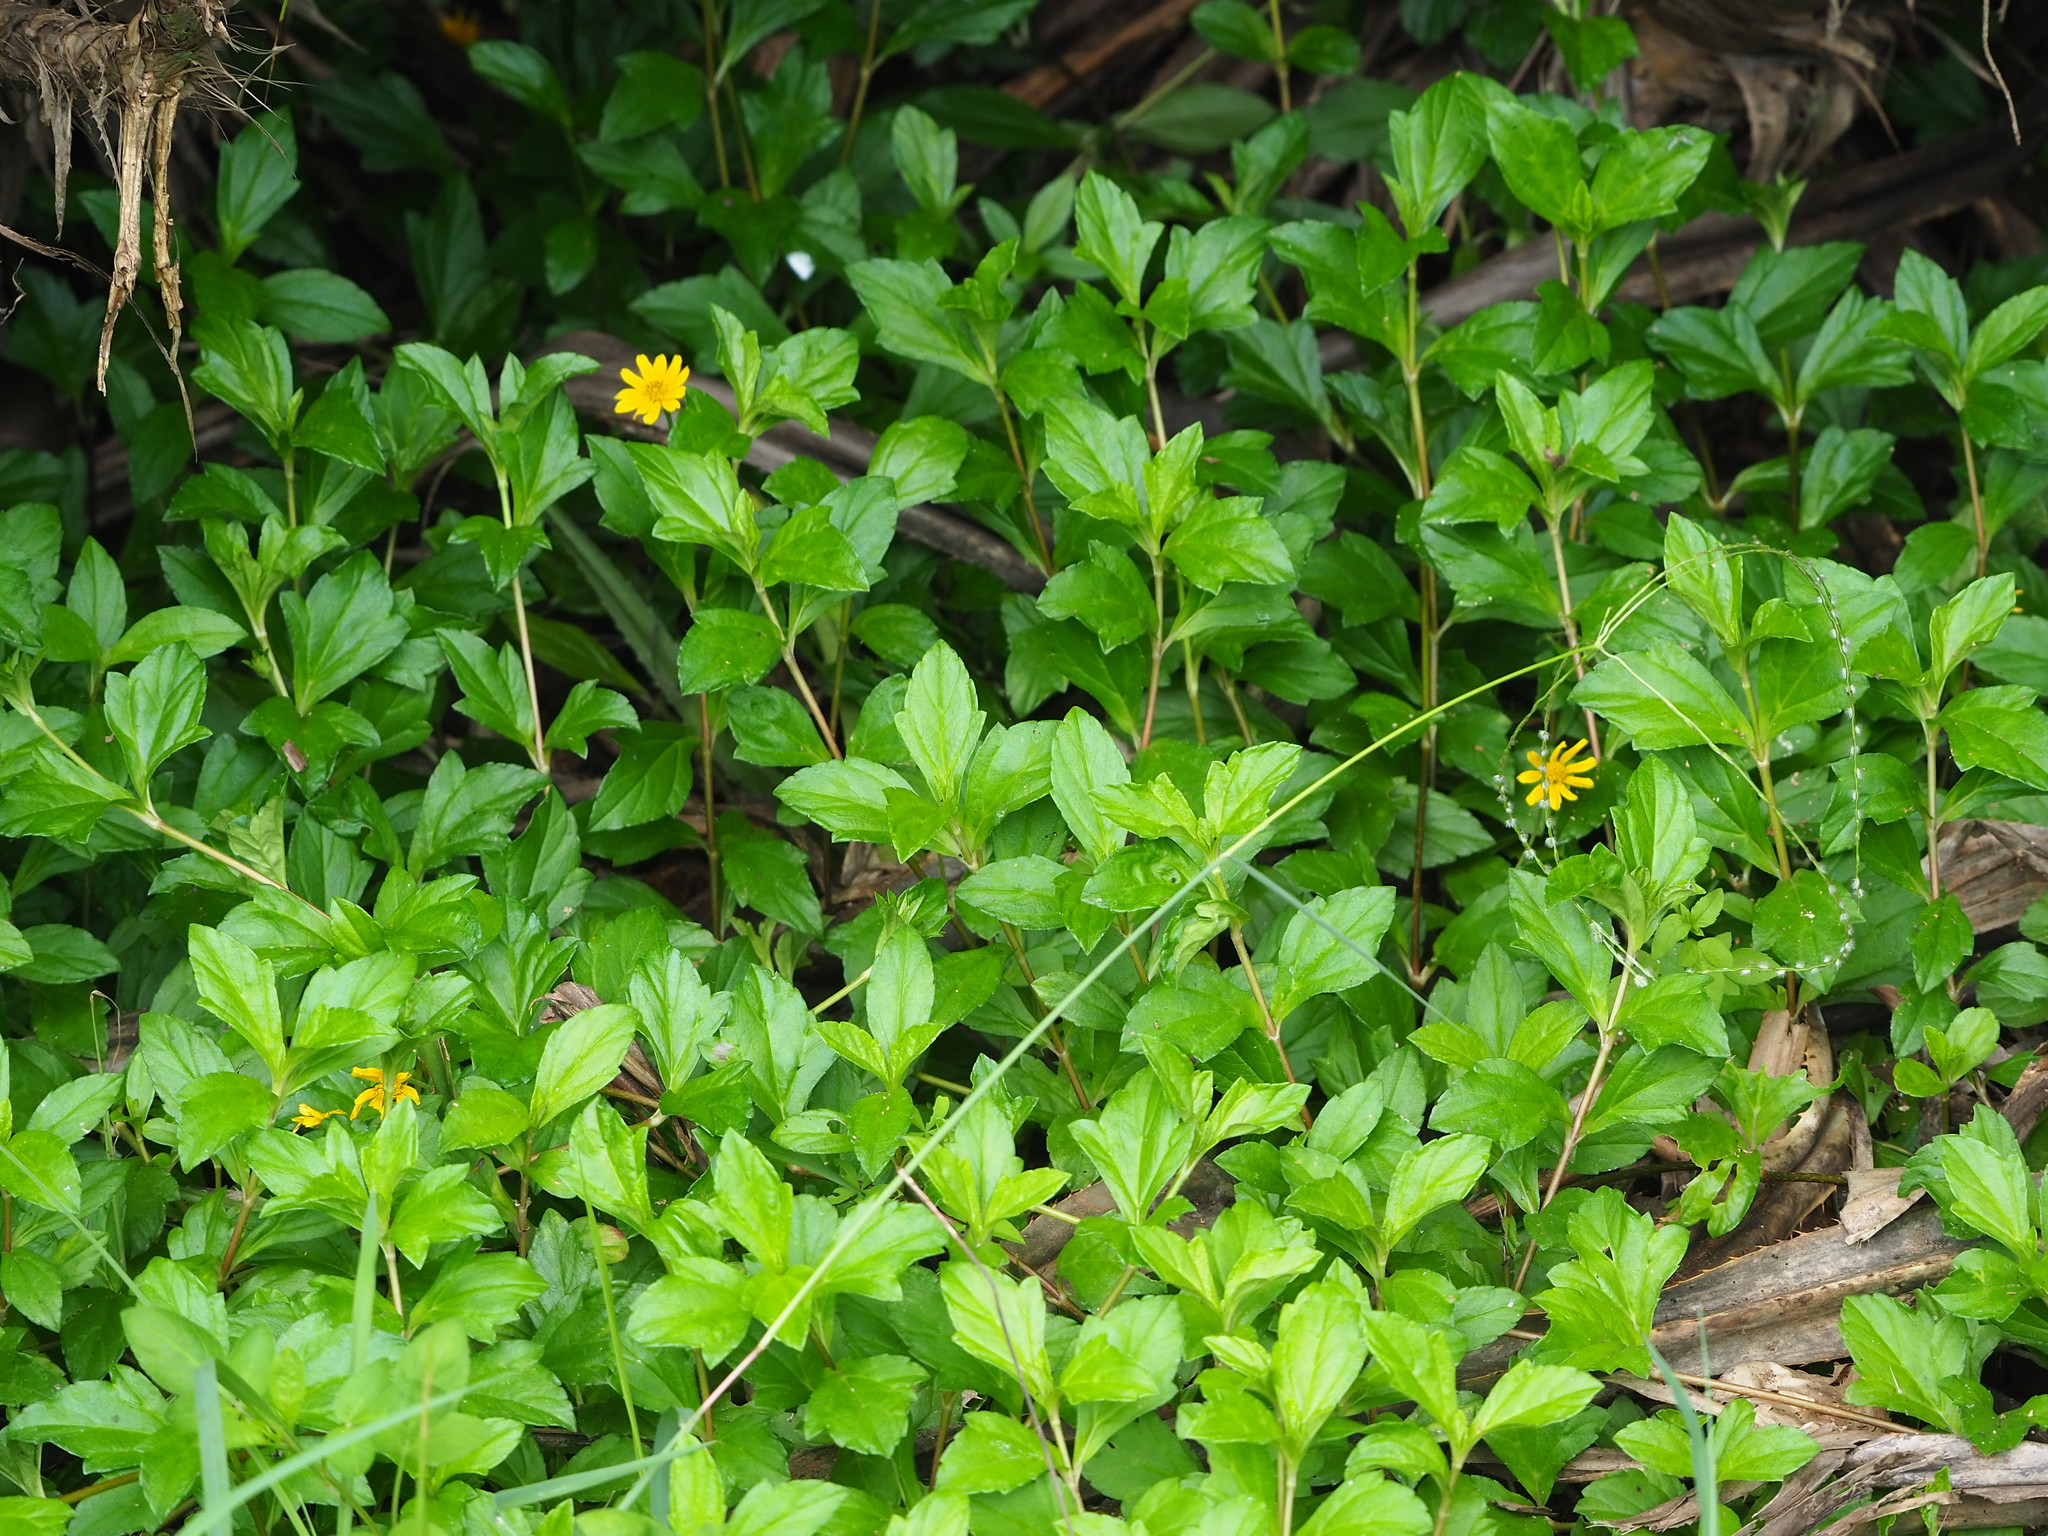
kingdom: Plantae
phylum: Tracheophyta
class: Magnoliopsida
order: Asterales
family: Asteraceae
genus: Sphagneticola
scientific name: Sphagneticola trilobata
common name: Bay biscayne creeping-oxeye
